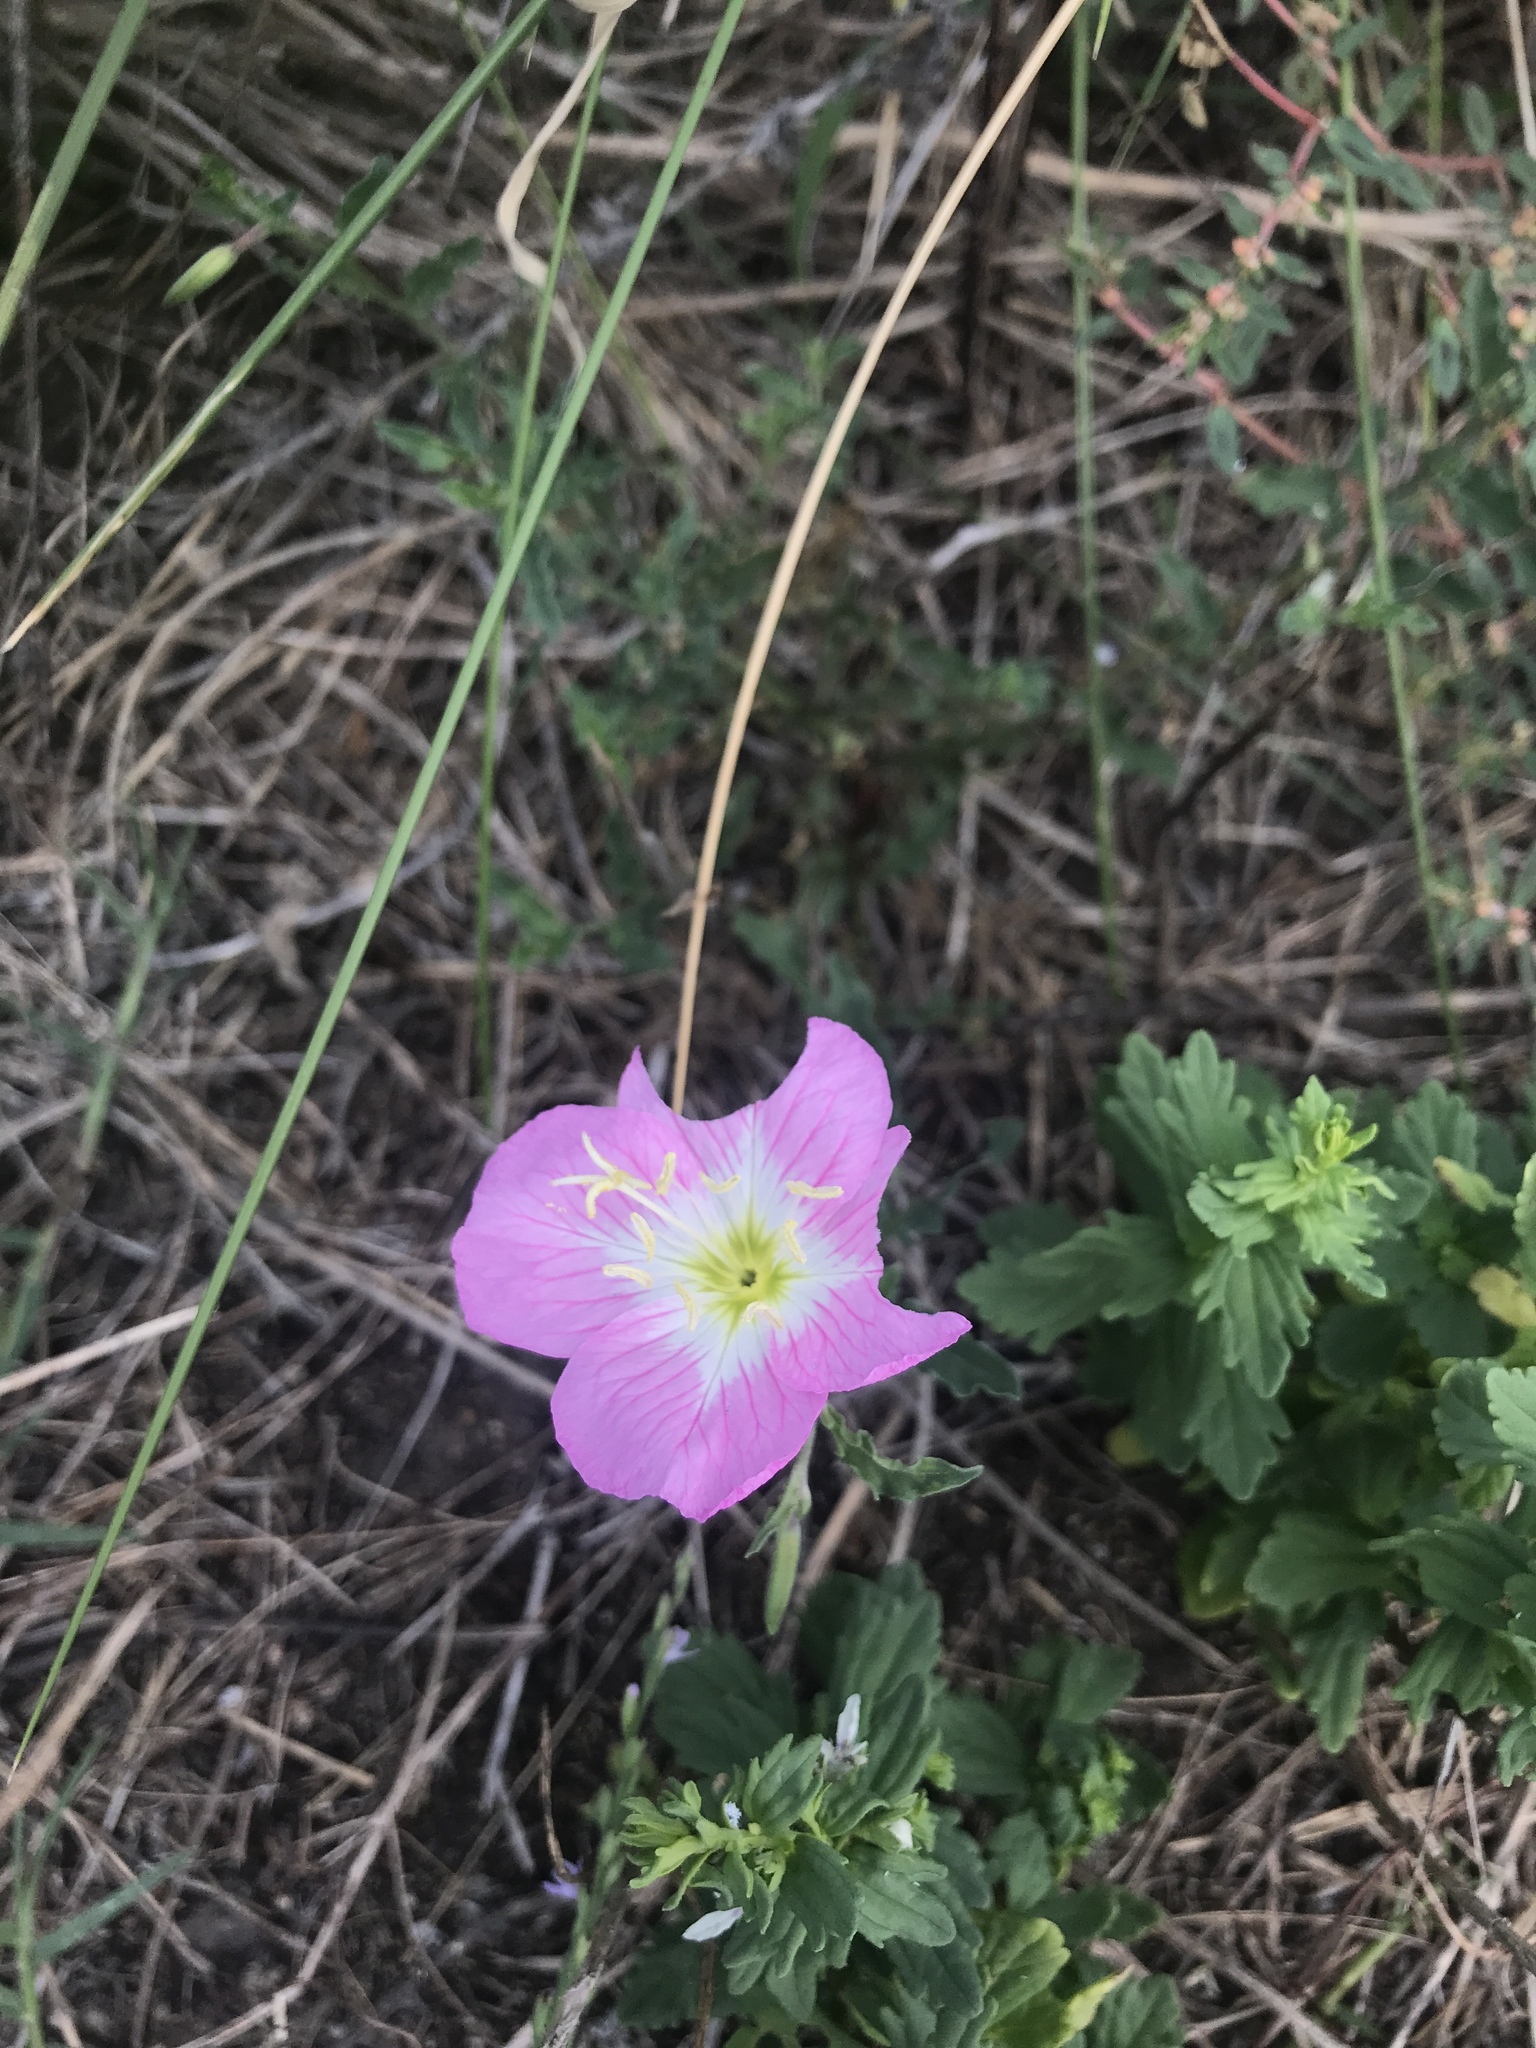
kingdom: Plantae
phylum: Tracheophyta
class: Magnoliopsida
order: Myrtales
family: Onagraceae
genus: Oenothera
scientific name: Oenothera speciosa
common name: White evening-primrose
